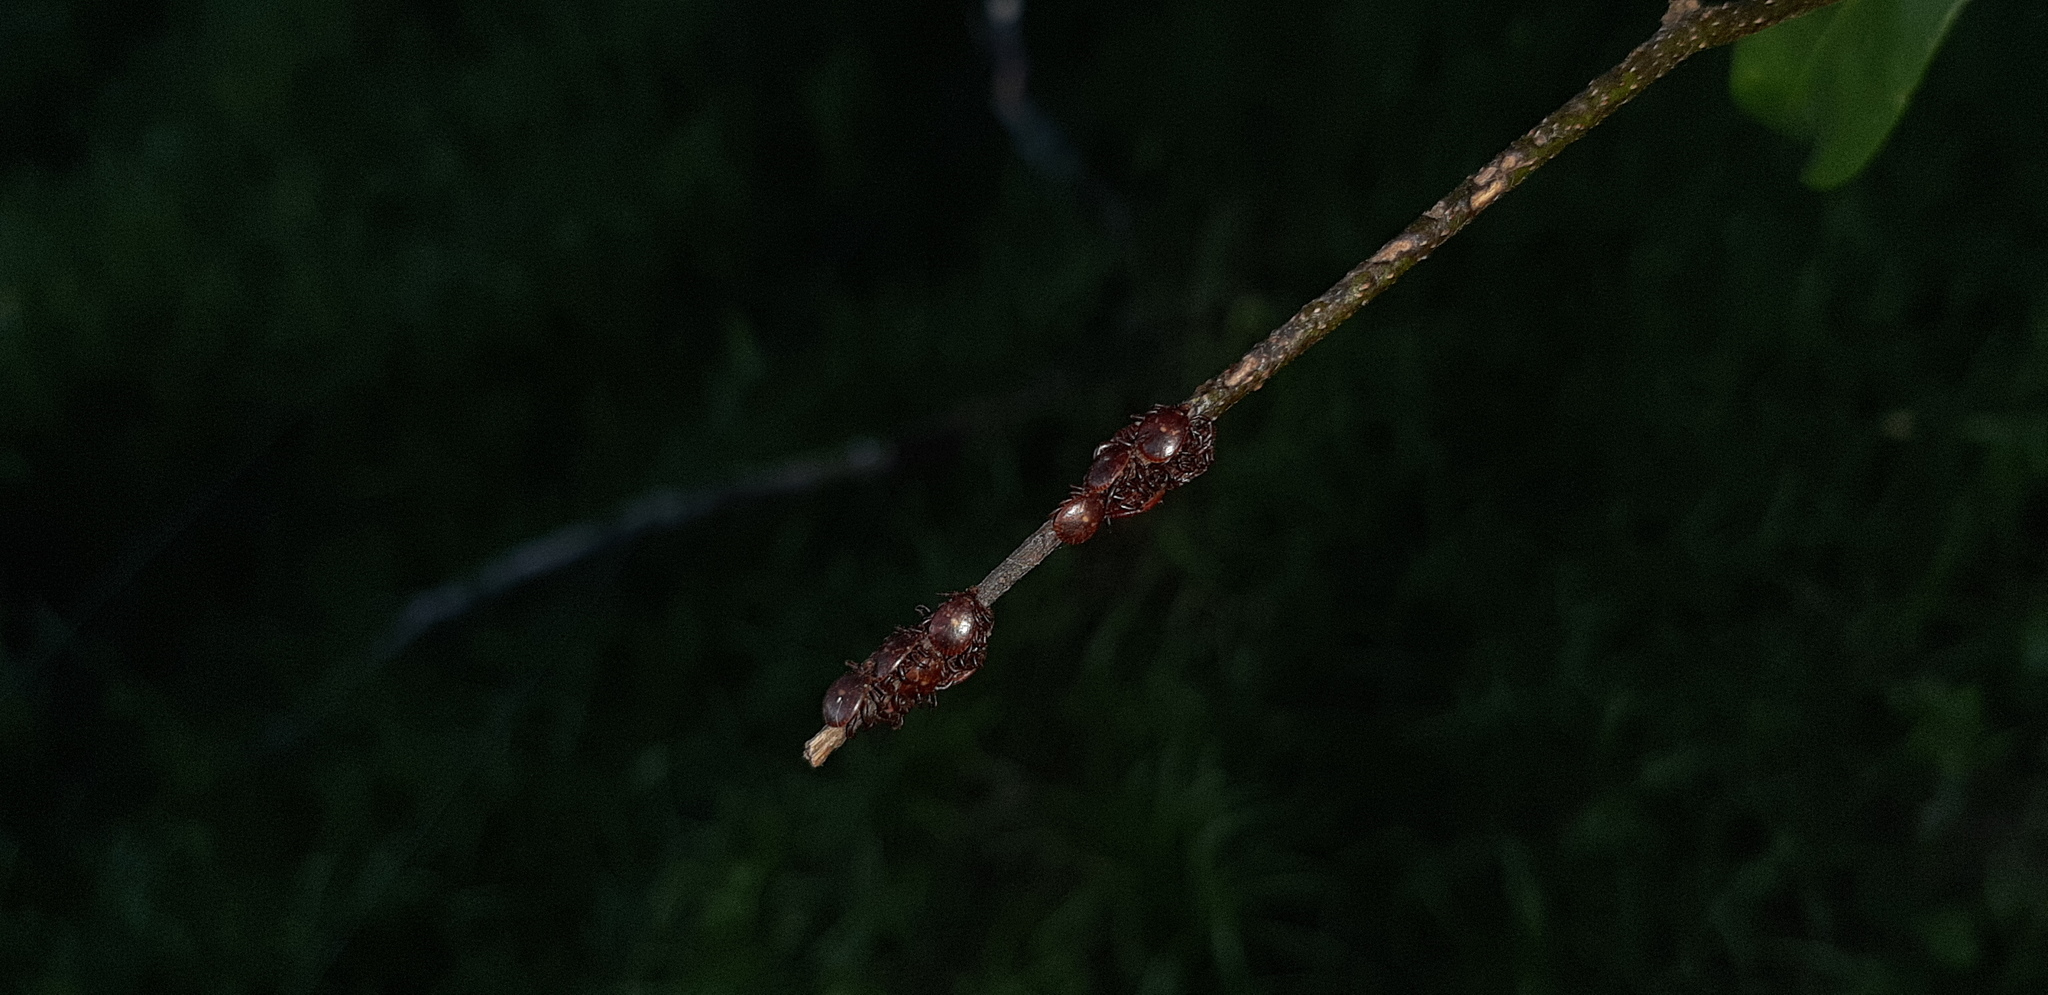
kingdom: Animalia
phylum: Arthropoda
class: Arachnida
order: Ixodida
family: Ixodidae
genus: Rhipicephalus
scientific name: Rhipicephalus maculatus
